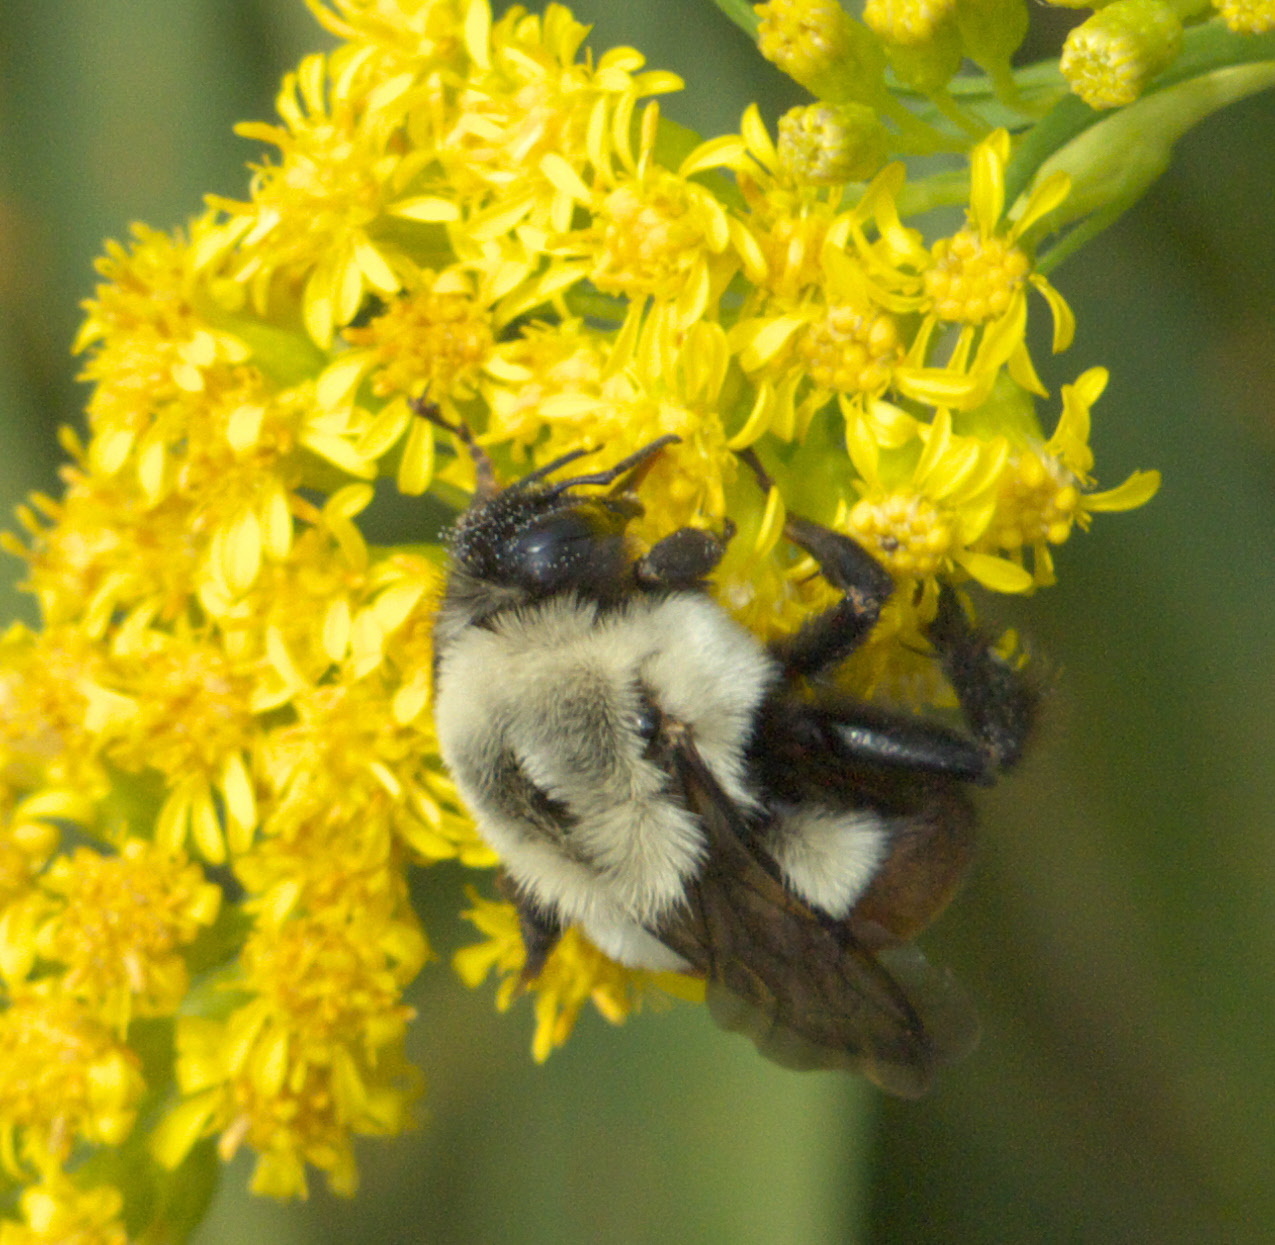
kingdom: Animalia
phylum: Arthropoda
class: Insecta
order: Hymenoptera
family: Apidae
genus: Bombus
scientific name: Bombus impatiens
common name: Common eastern bumble bee
